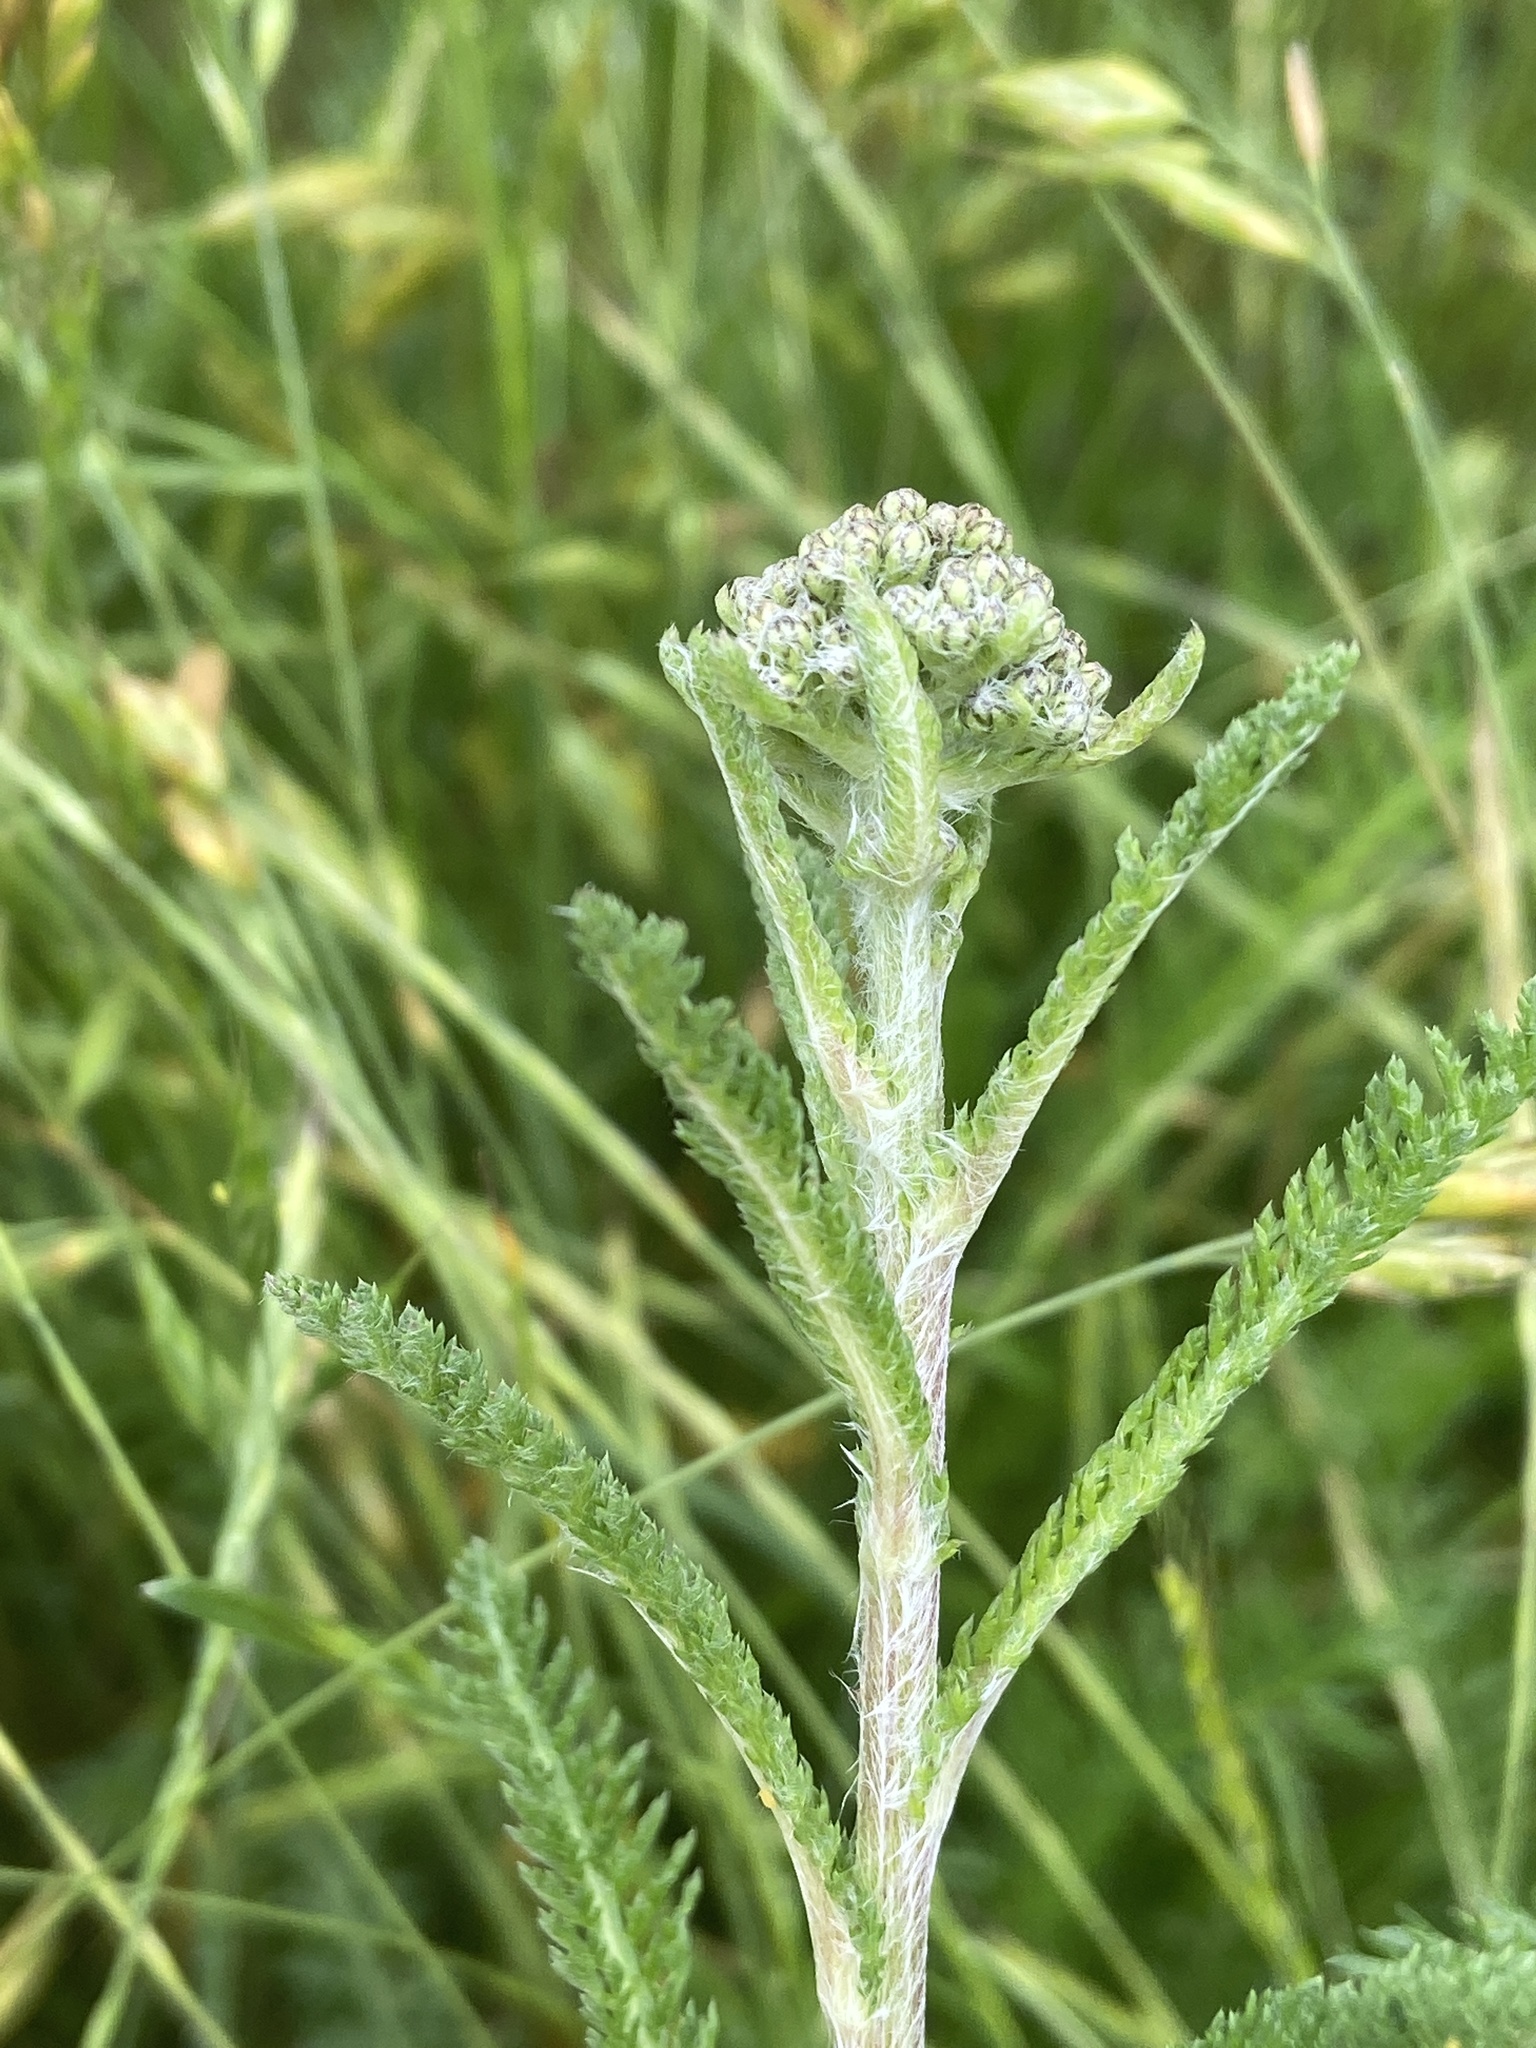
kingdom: Plantae
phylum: Tracheophyta
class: Magnoliopsida
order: Asterales
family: Asteraceae
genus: Achillea
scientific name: Achillea millefolium
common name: Yarrow
